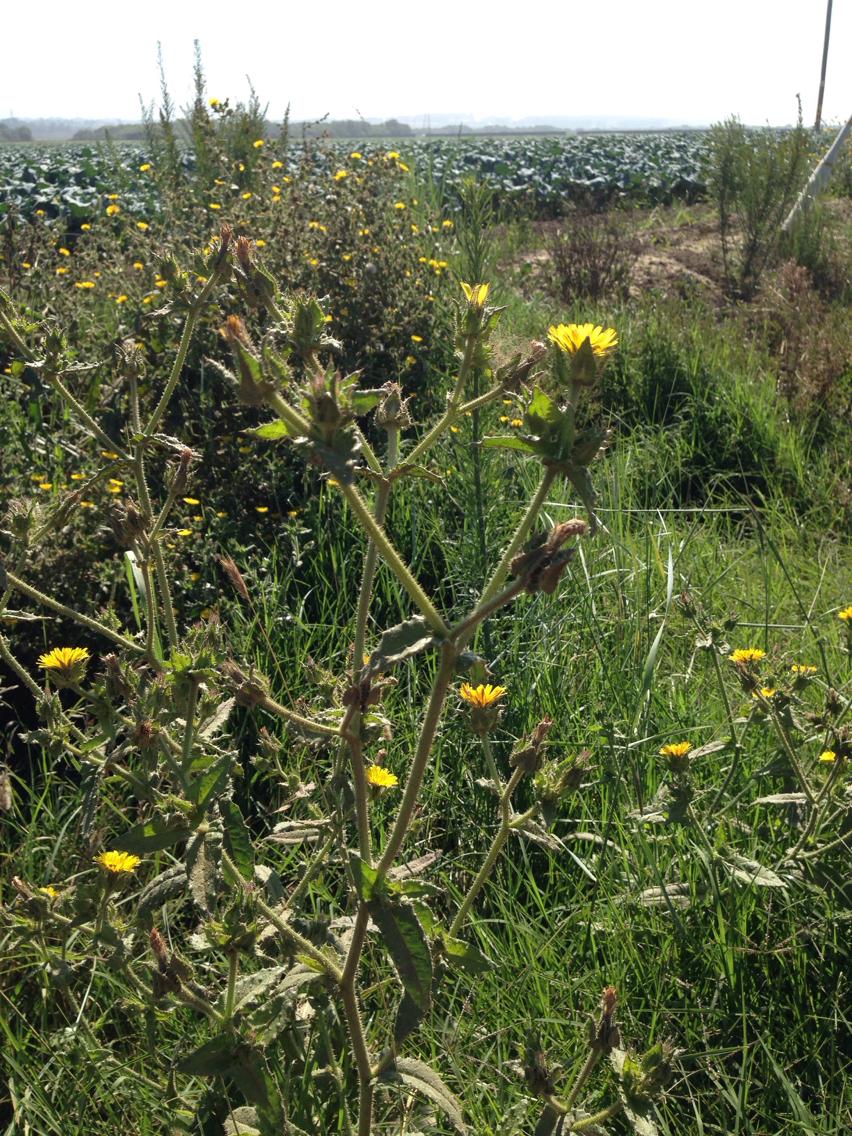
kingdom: Plantae
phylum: Tracheophyta
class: Magnoliopsida
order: Asterales
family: Asteraceae
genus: Helminthotheca
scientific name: Helminthotheca echioides
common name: Ox-tongue
